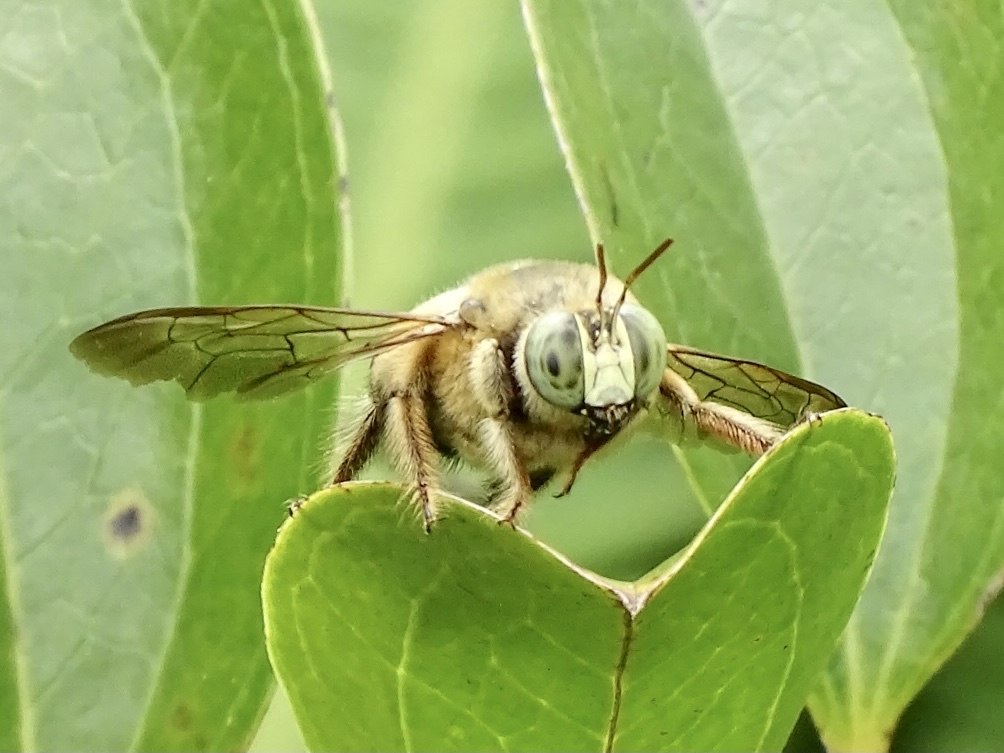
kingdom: Animalia
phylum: Arthropoda
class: Insecta
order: Hymenoptera
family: Apidae
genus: Xylocopa
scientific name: Xylocopa dejeanii
